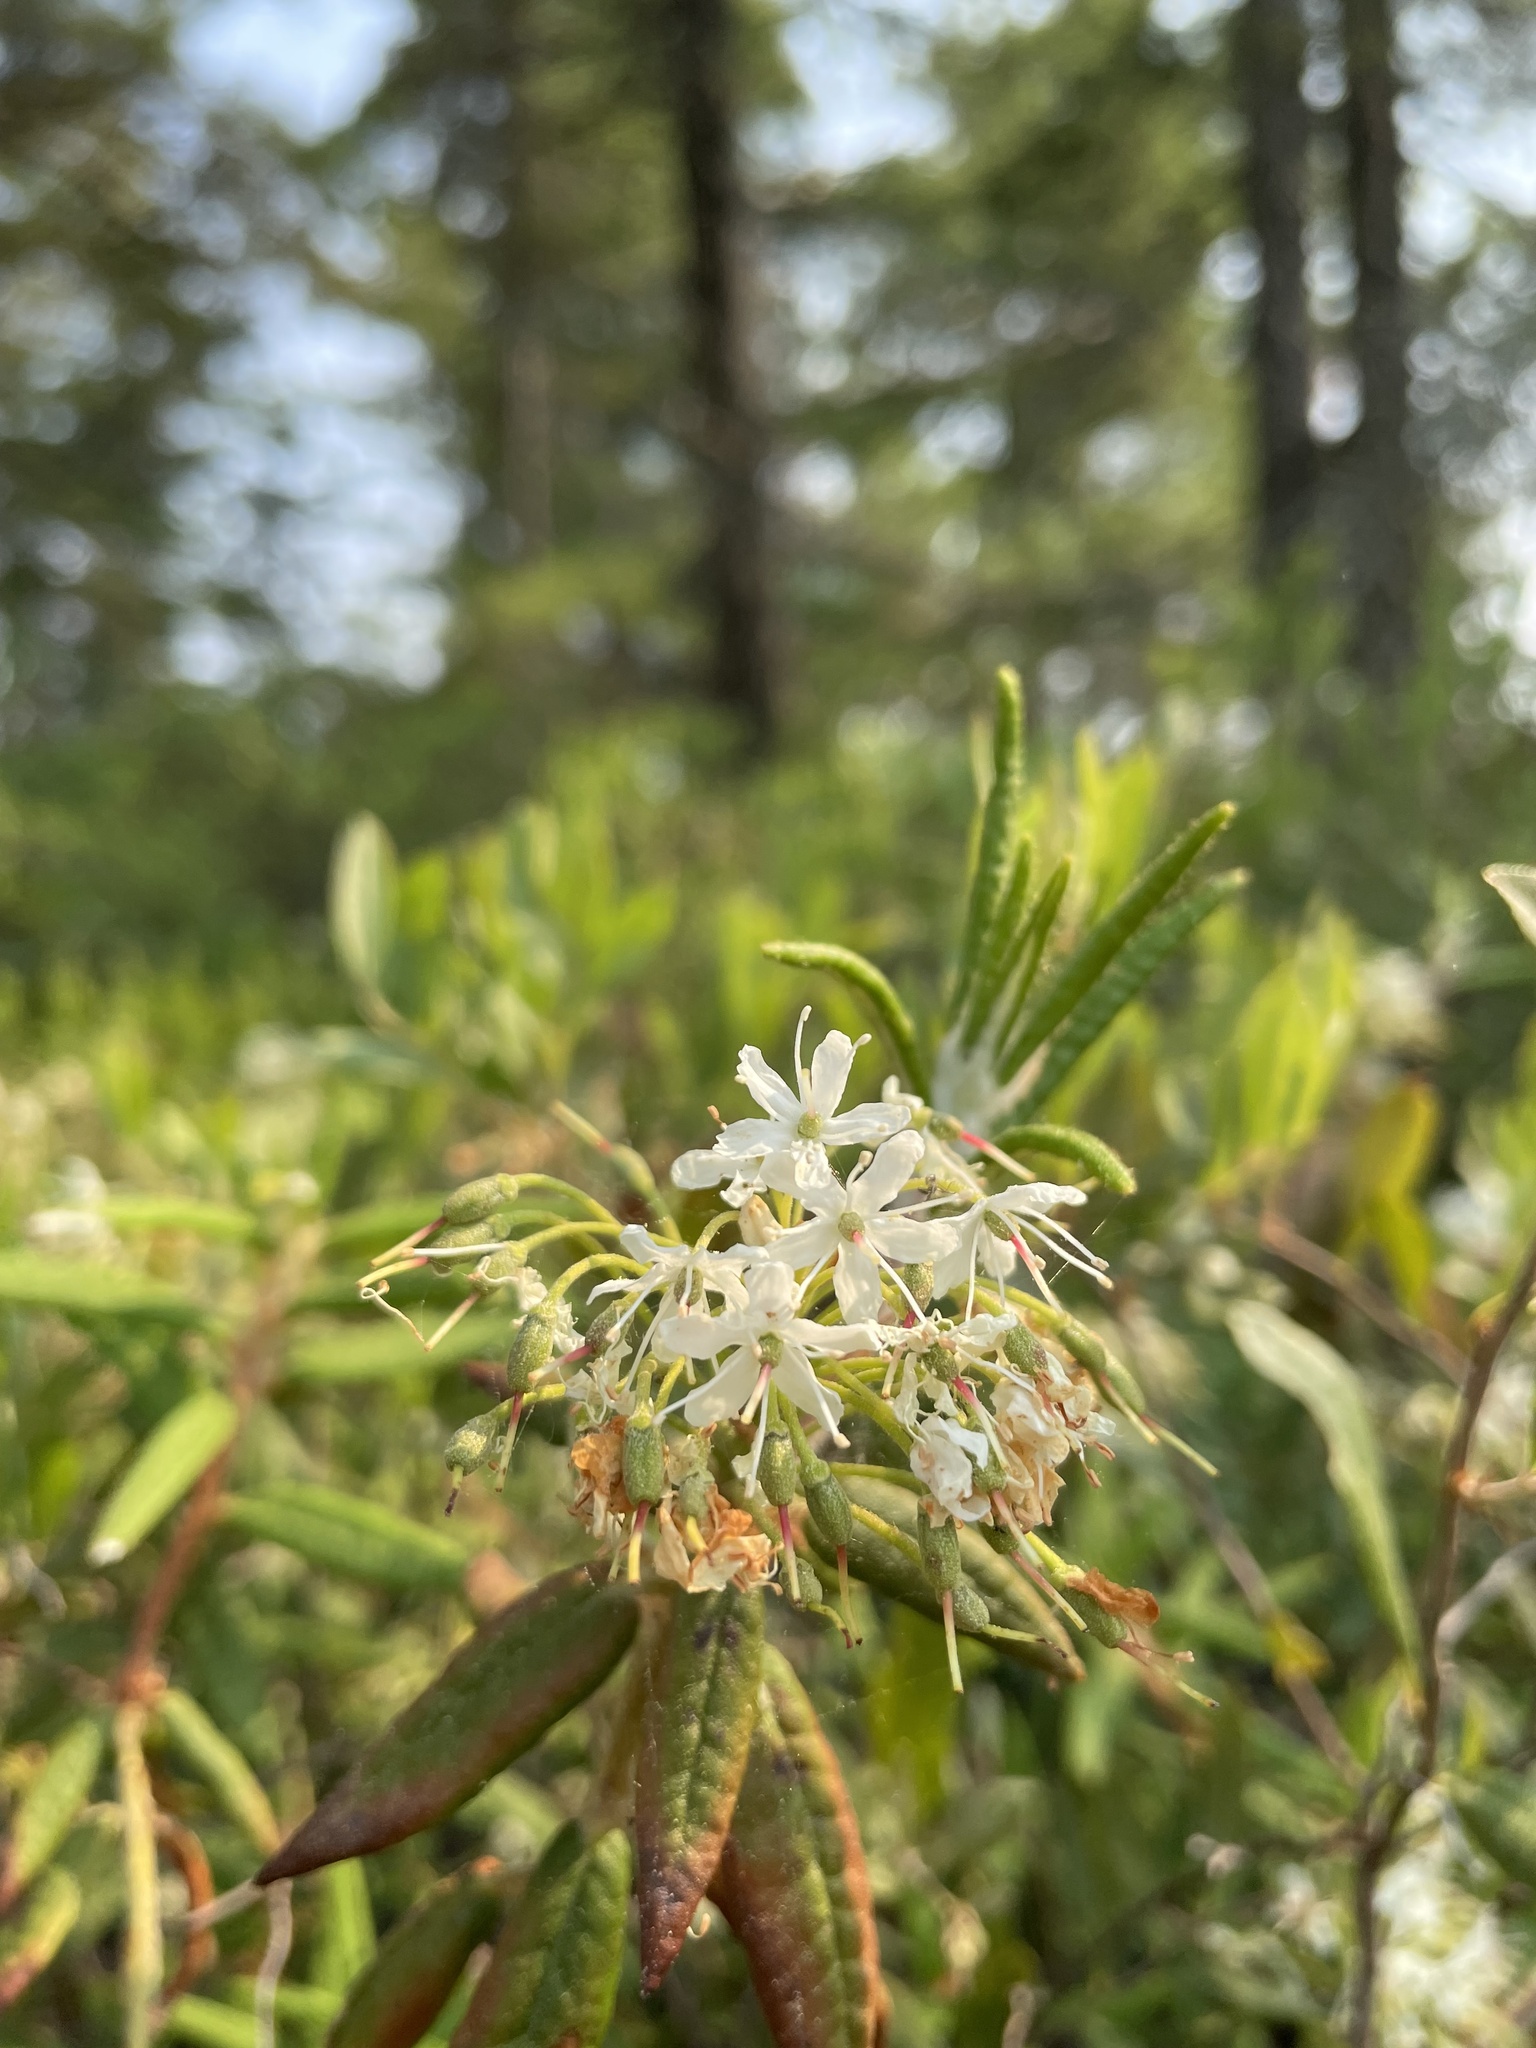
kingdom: Plantae
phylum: Tracheophyta
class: Magnoliopsida
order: Ericales
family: Ericaceae
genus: Rhododendron
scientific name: Rhododendron groenlandicum
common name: Bog labrador tea
